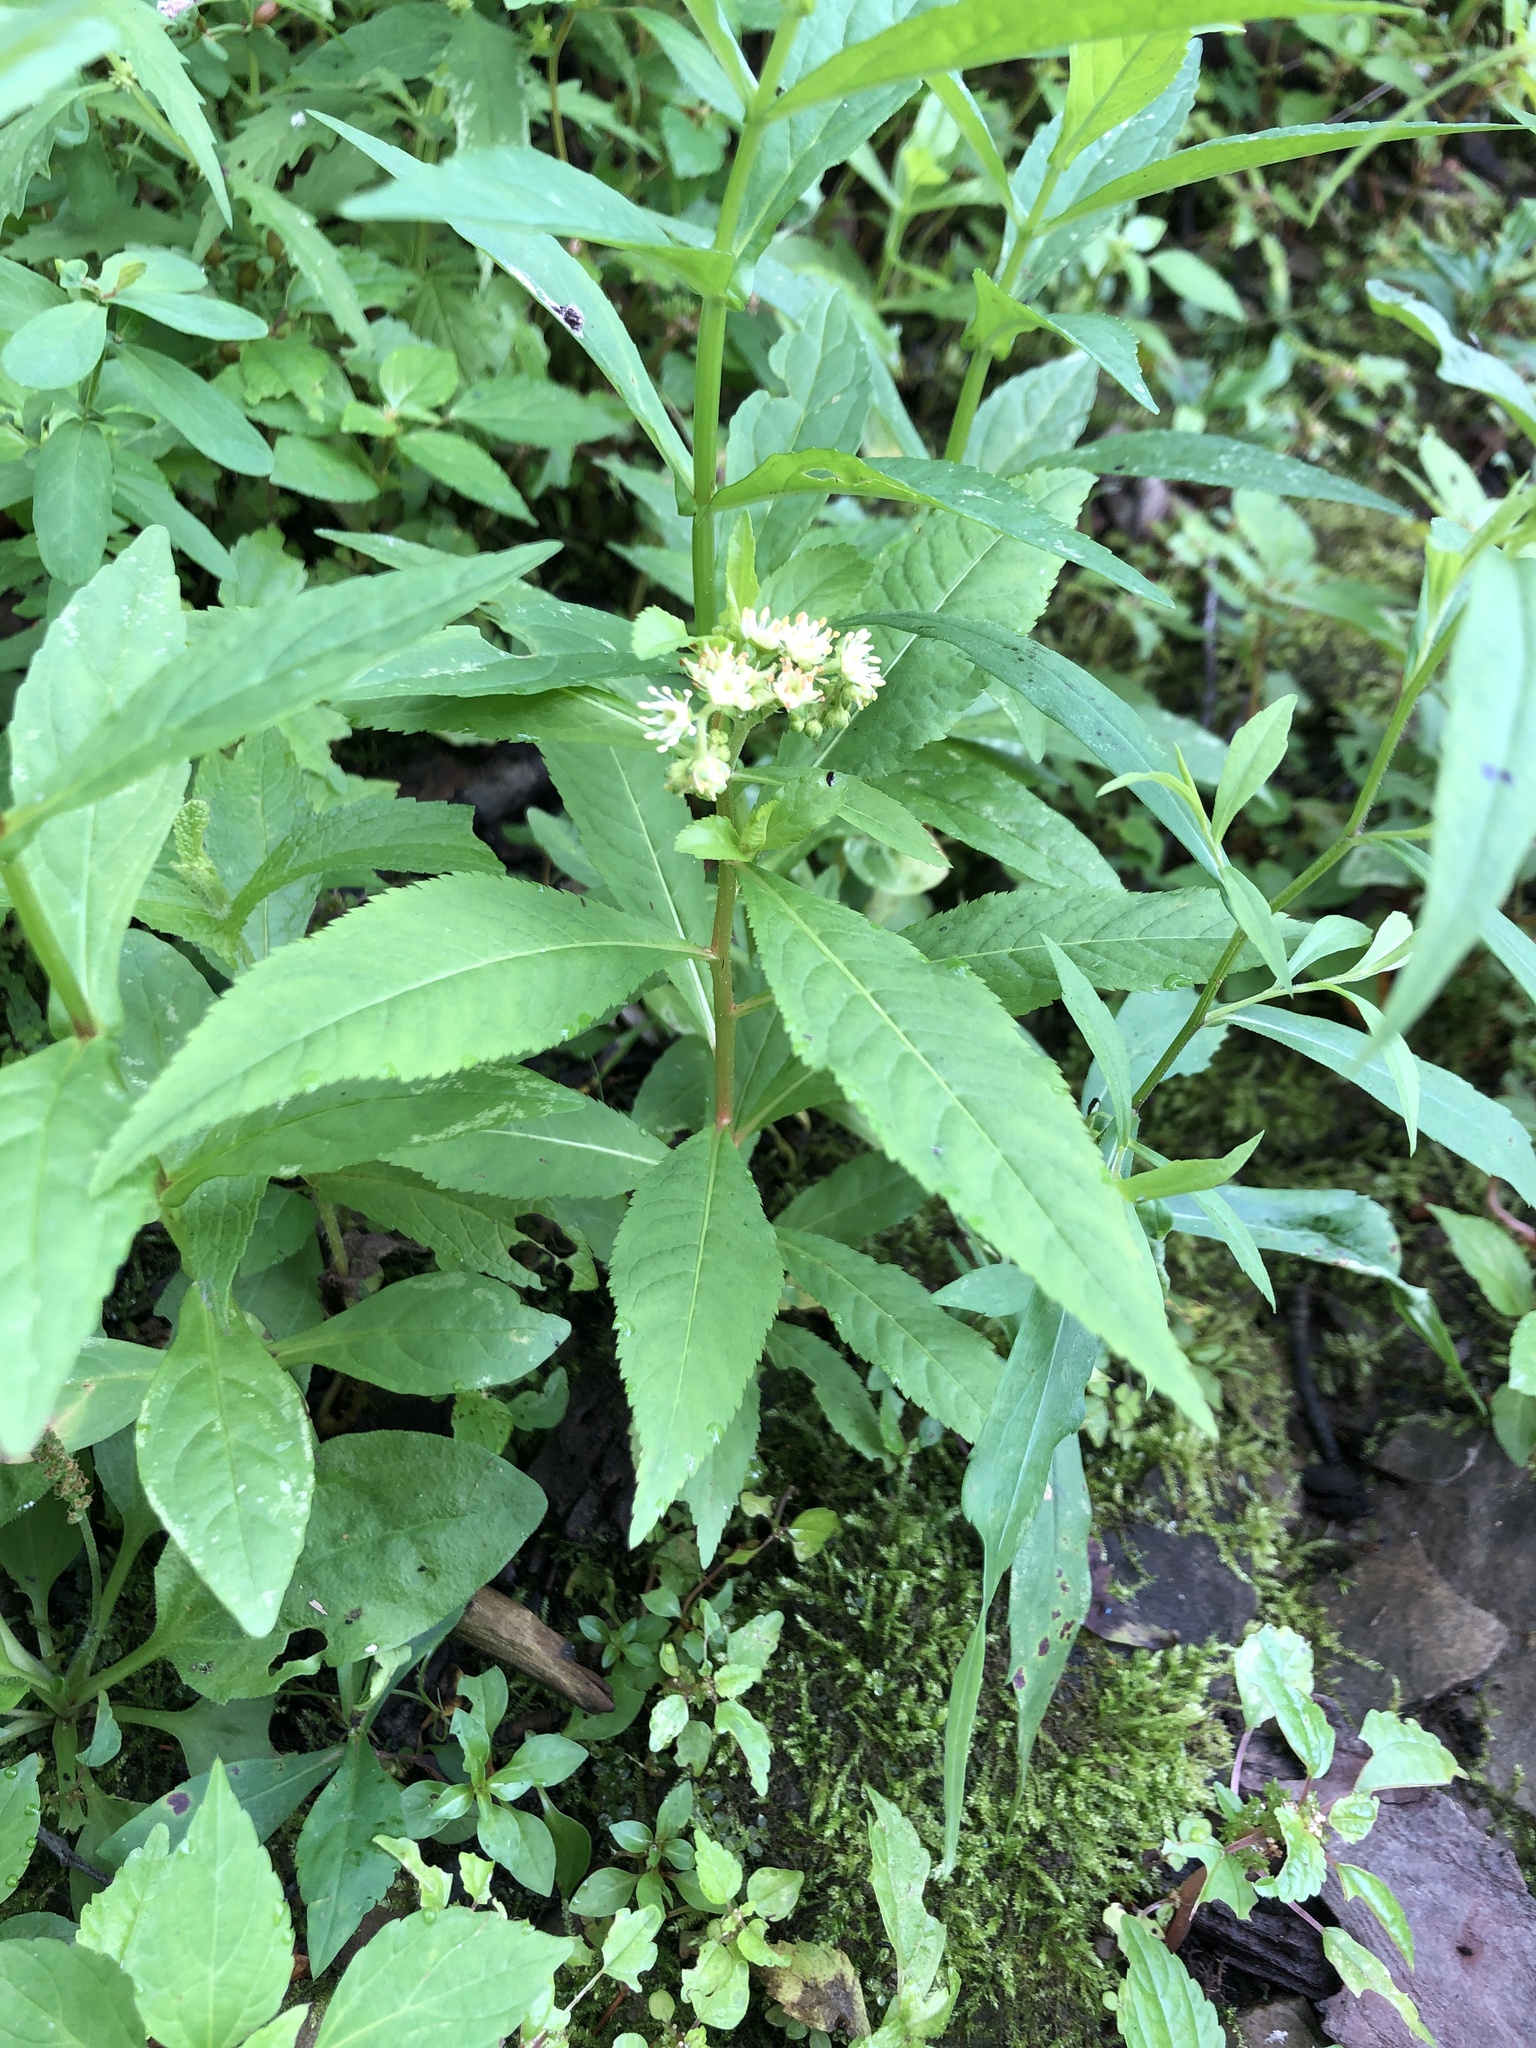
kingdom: Plantae
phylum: Tracheophyta
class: Magnoliopsida
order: Saxifragales
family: Penthoraceae
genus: Penthorum
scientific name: Penthorum sedoides
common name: Ditch stonecrop
